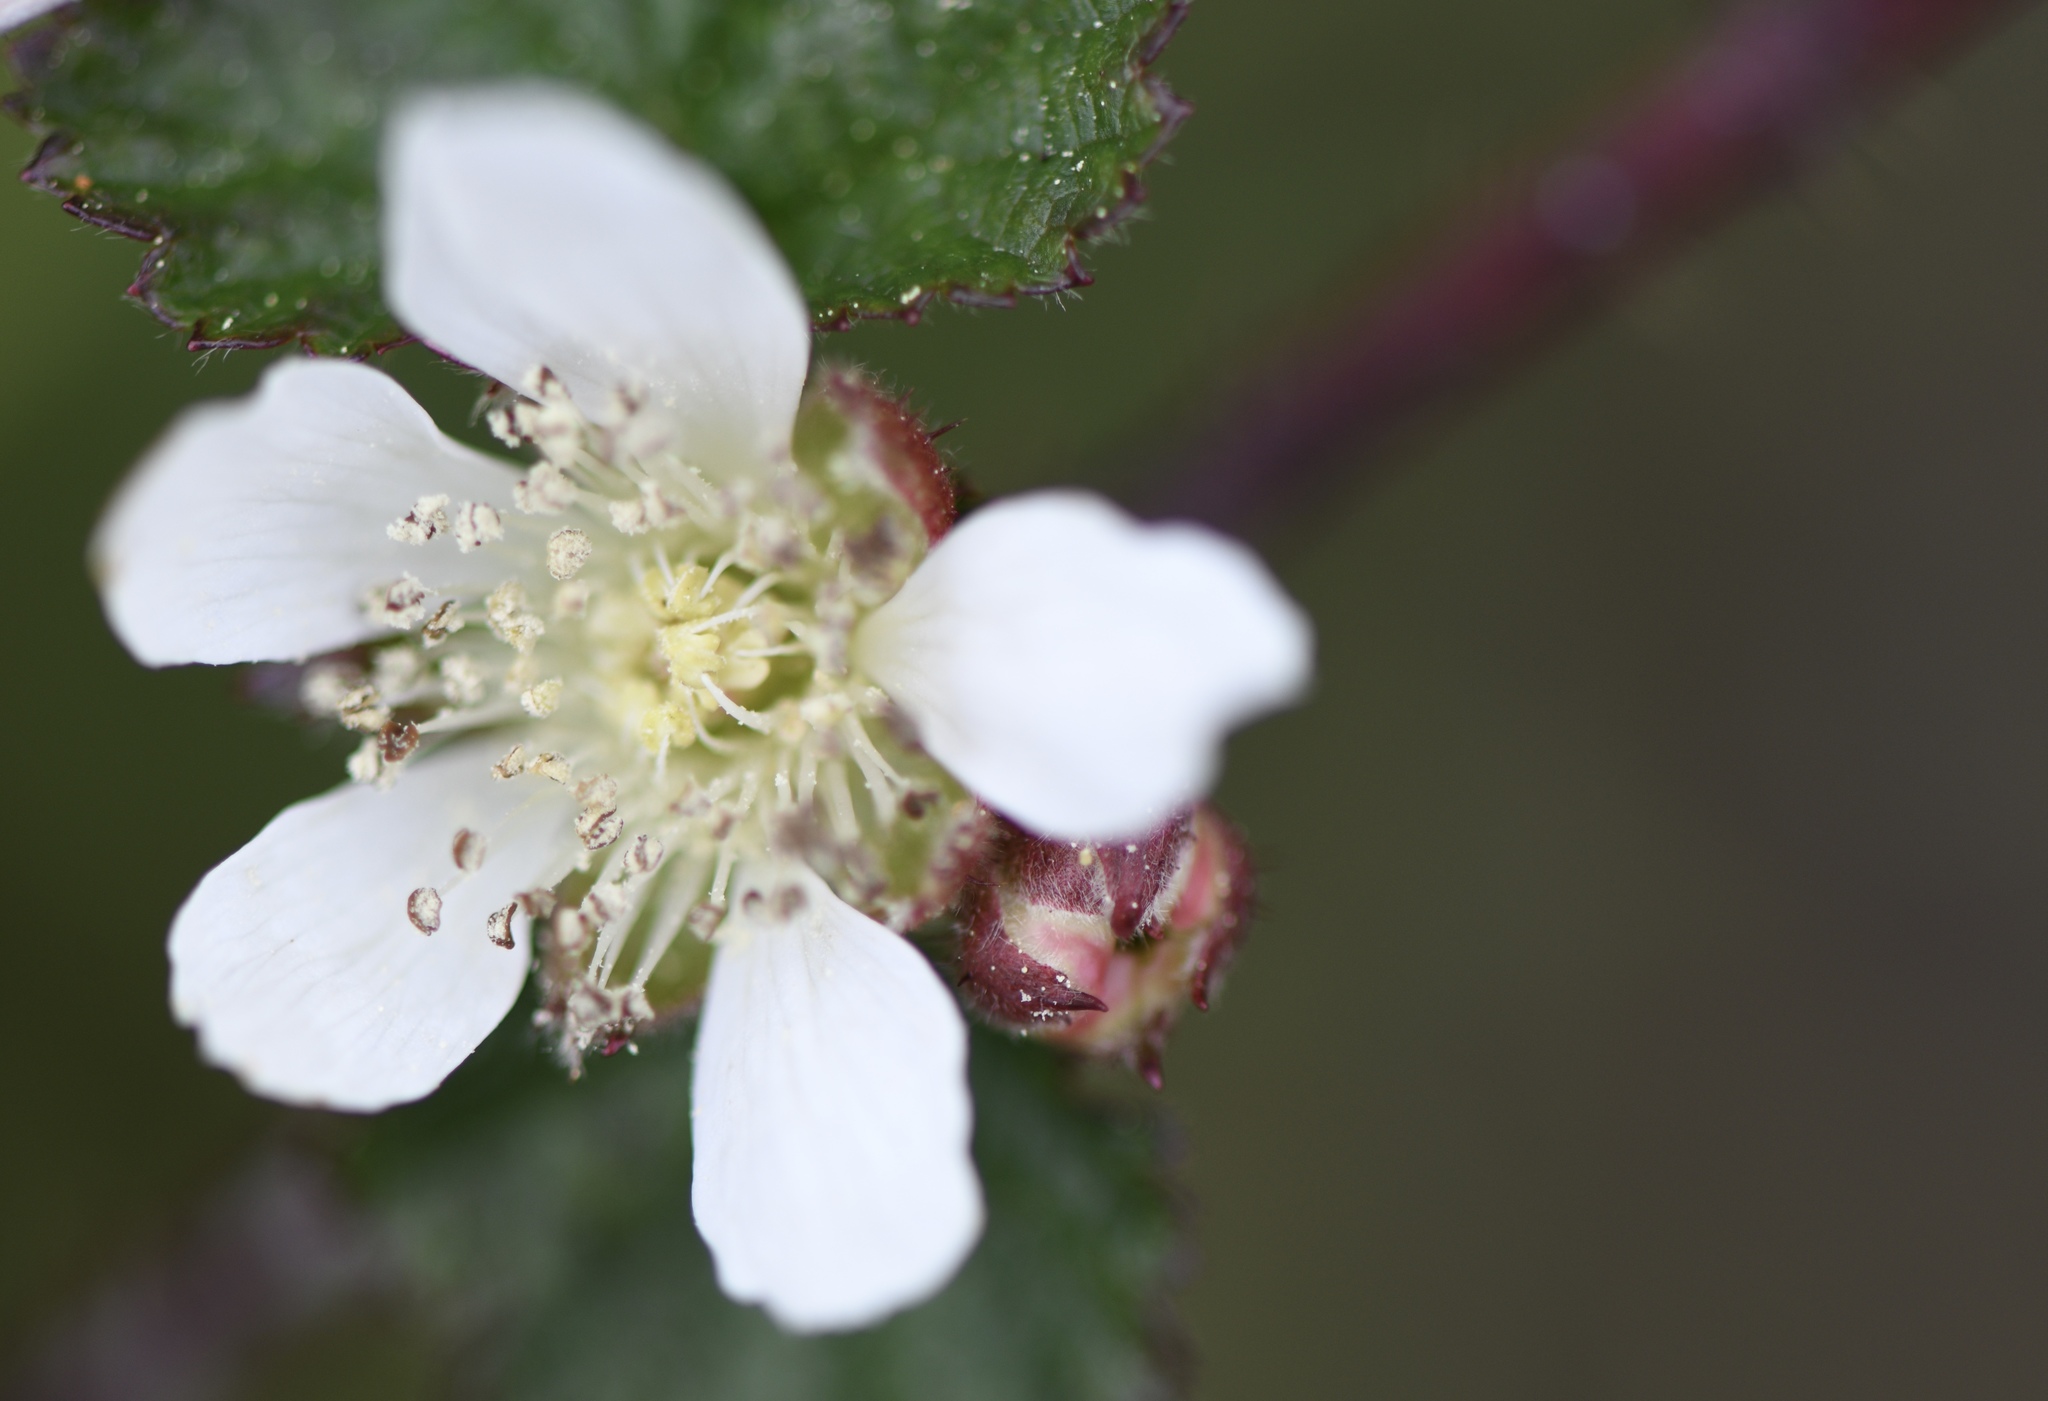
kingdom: Plantae
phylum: Tracheophyta
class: Magnoliopsida
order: Rosales
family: Rosaceae
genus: Rubus
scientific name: Rubus ursinus
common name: Pacific blackberry
